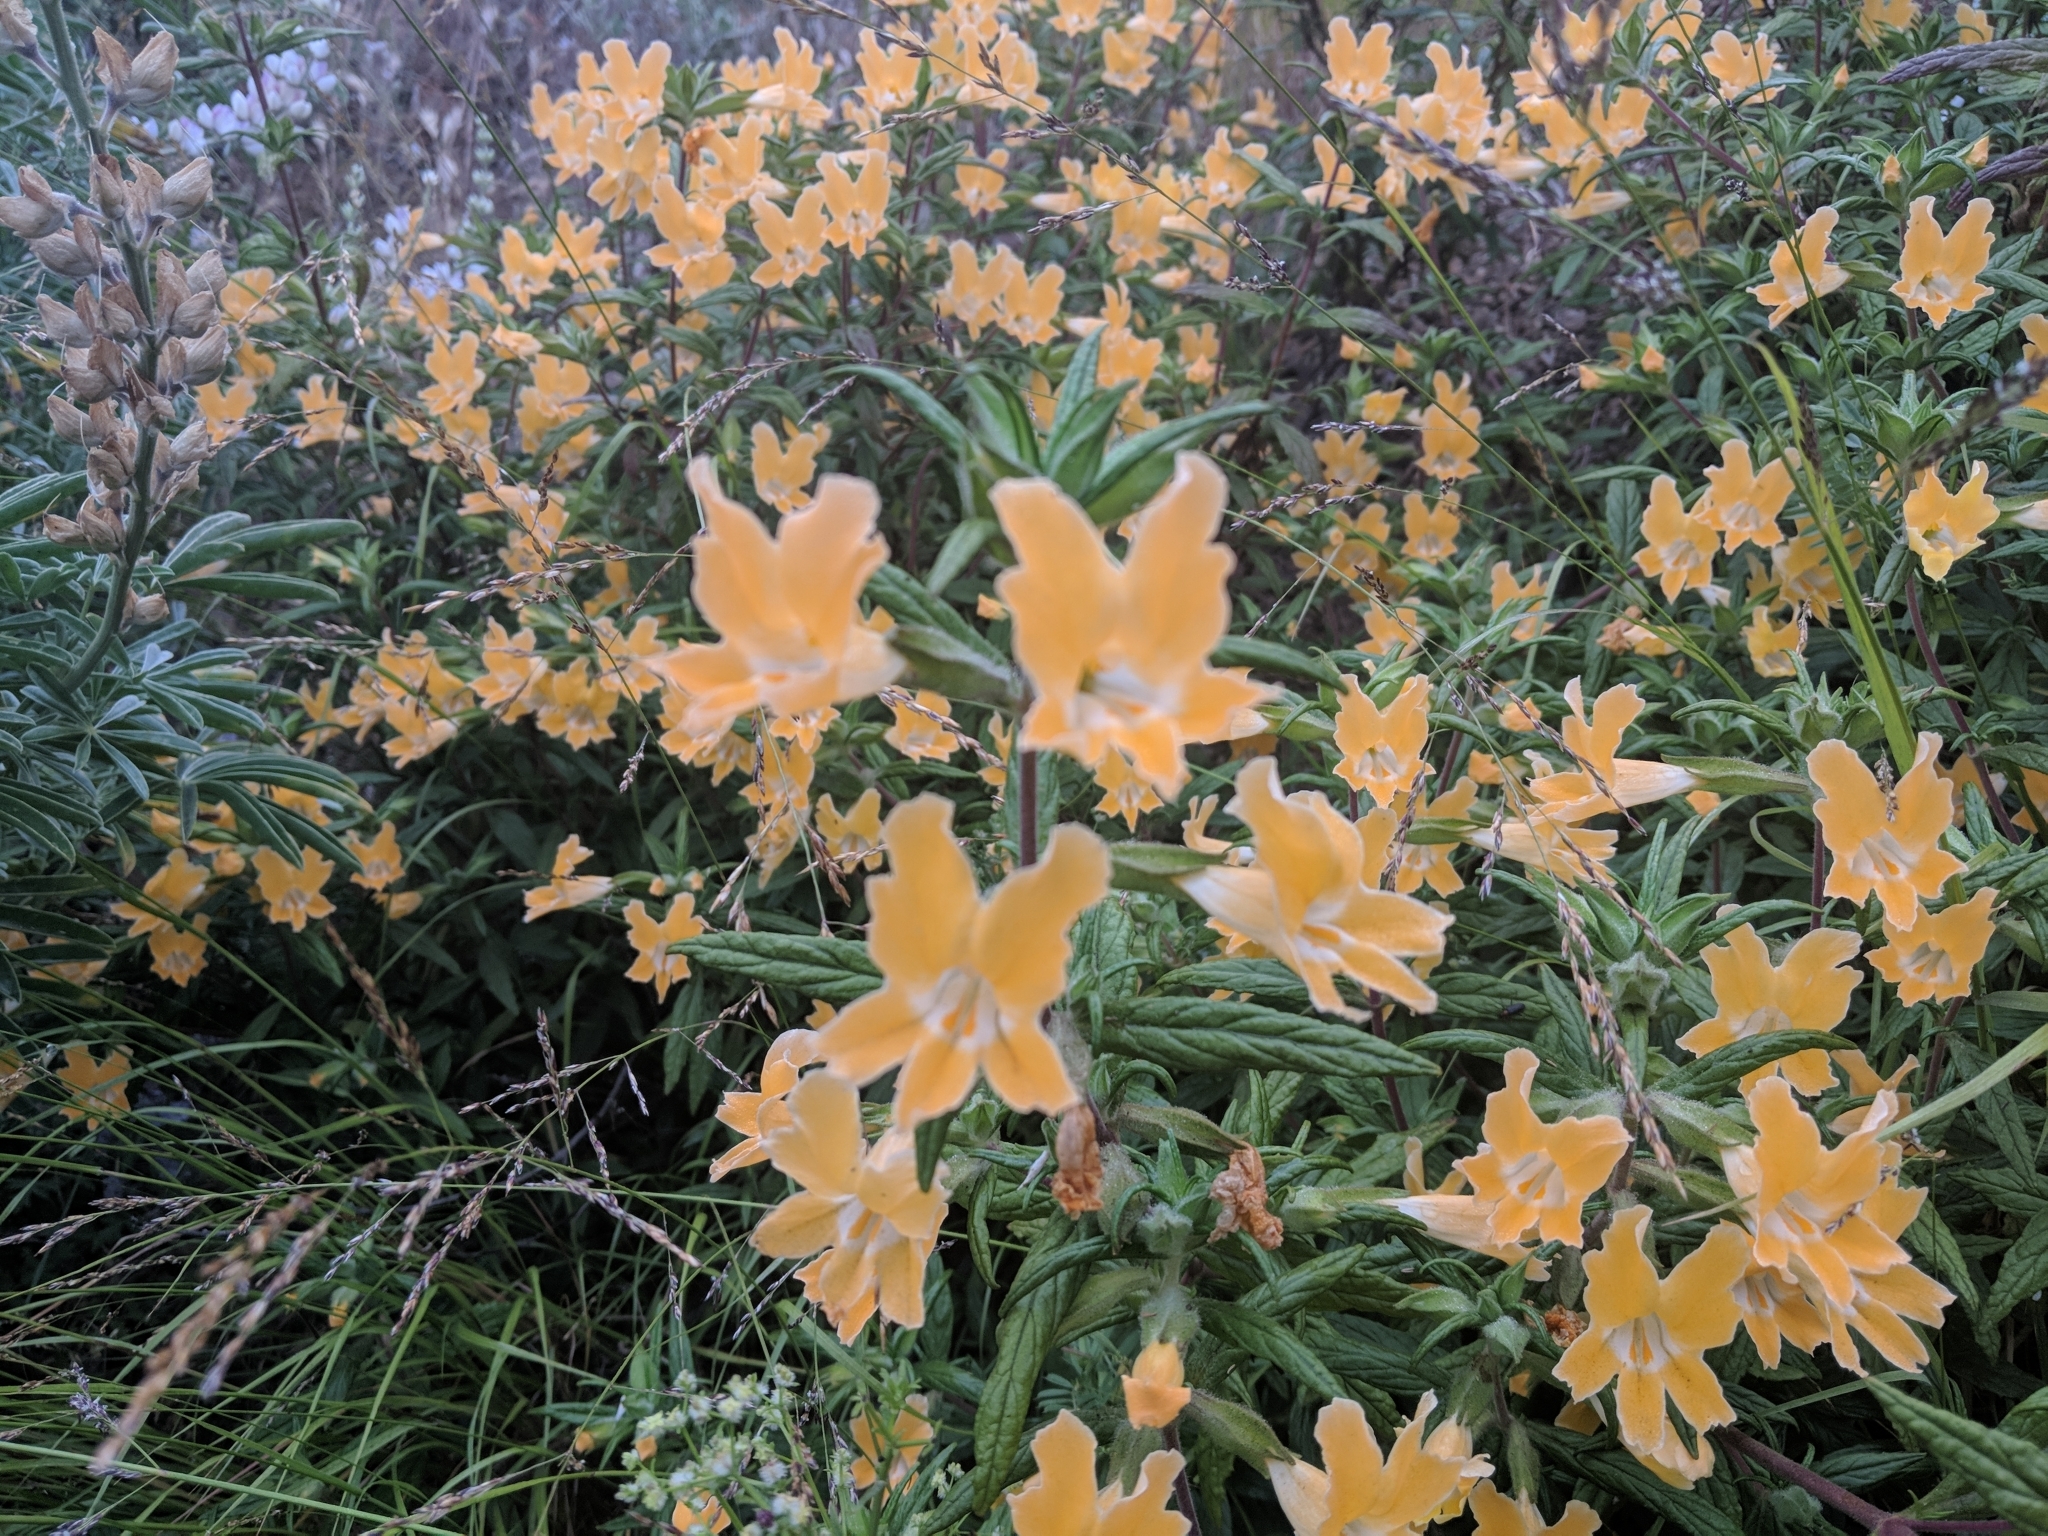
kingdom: Plantae
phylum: Tracheophyta
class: Magnoliopsida
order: Lamiales
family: Phrymaceae
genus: Diplacus
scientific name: Diplacus longiflorus
